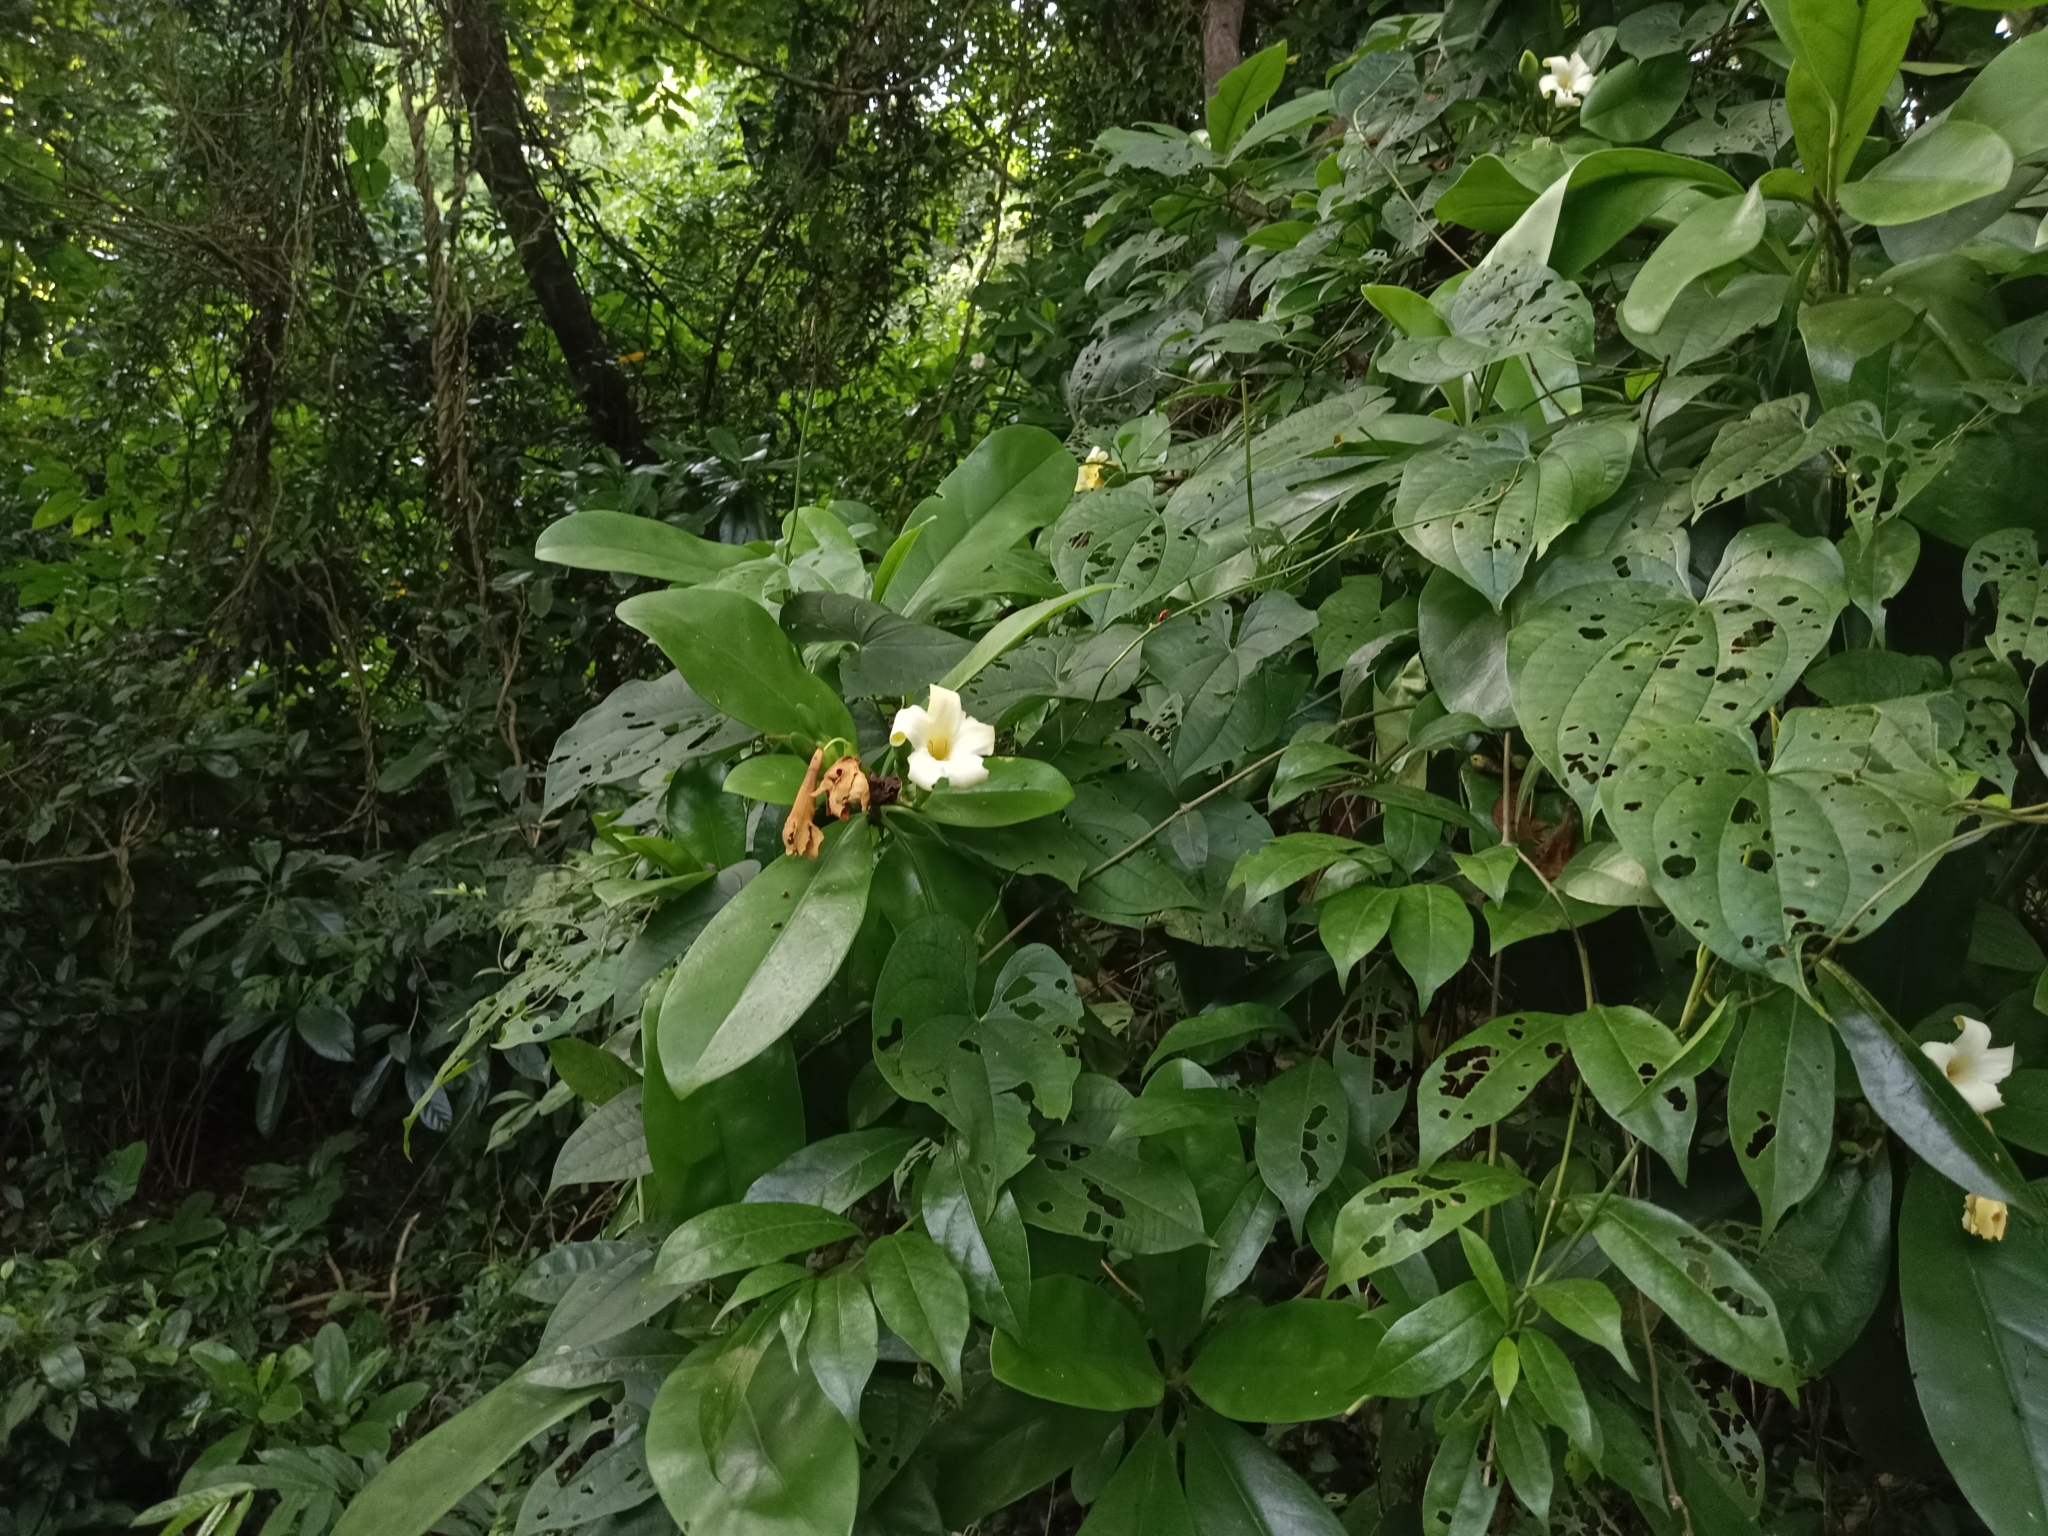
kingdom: Plantae
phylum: Tracheophyta
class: Magnoliopsida
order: Gentianales
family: Gentianaceae
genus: Fagraea
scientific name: Fagraea ceilanica
